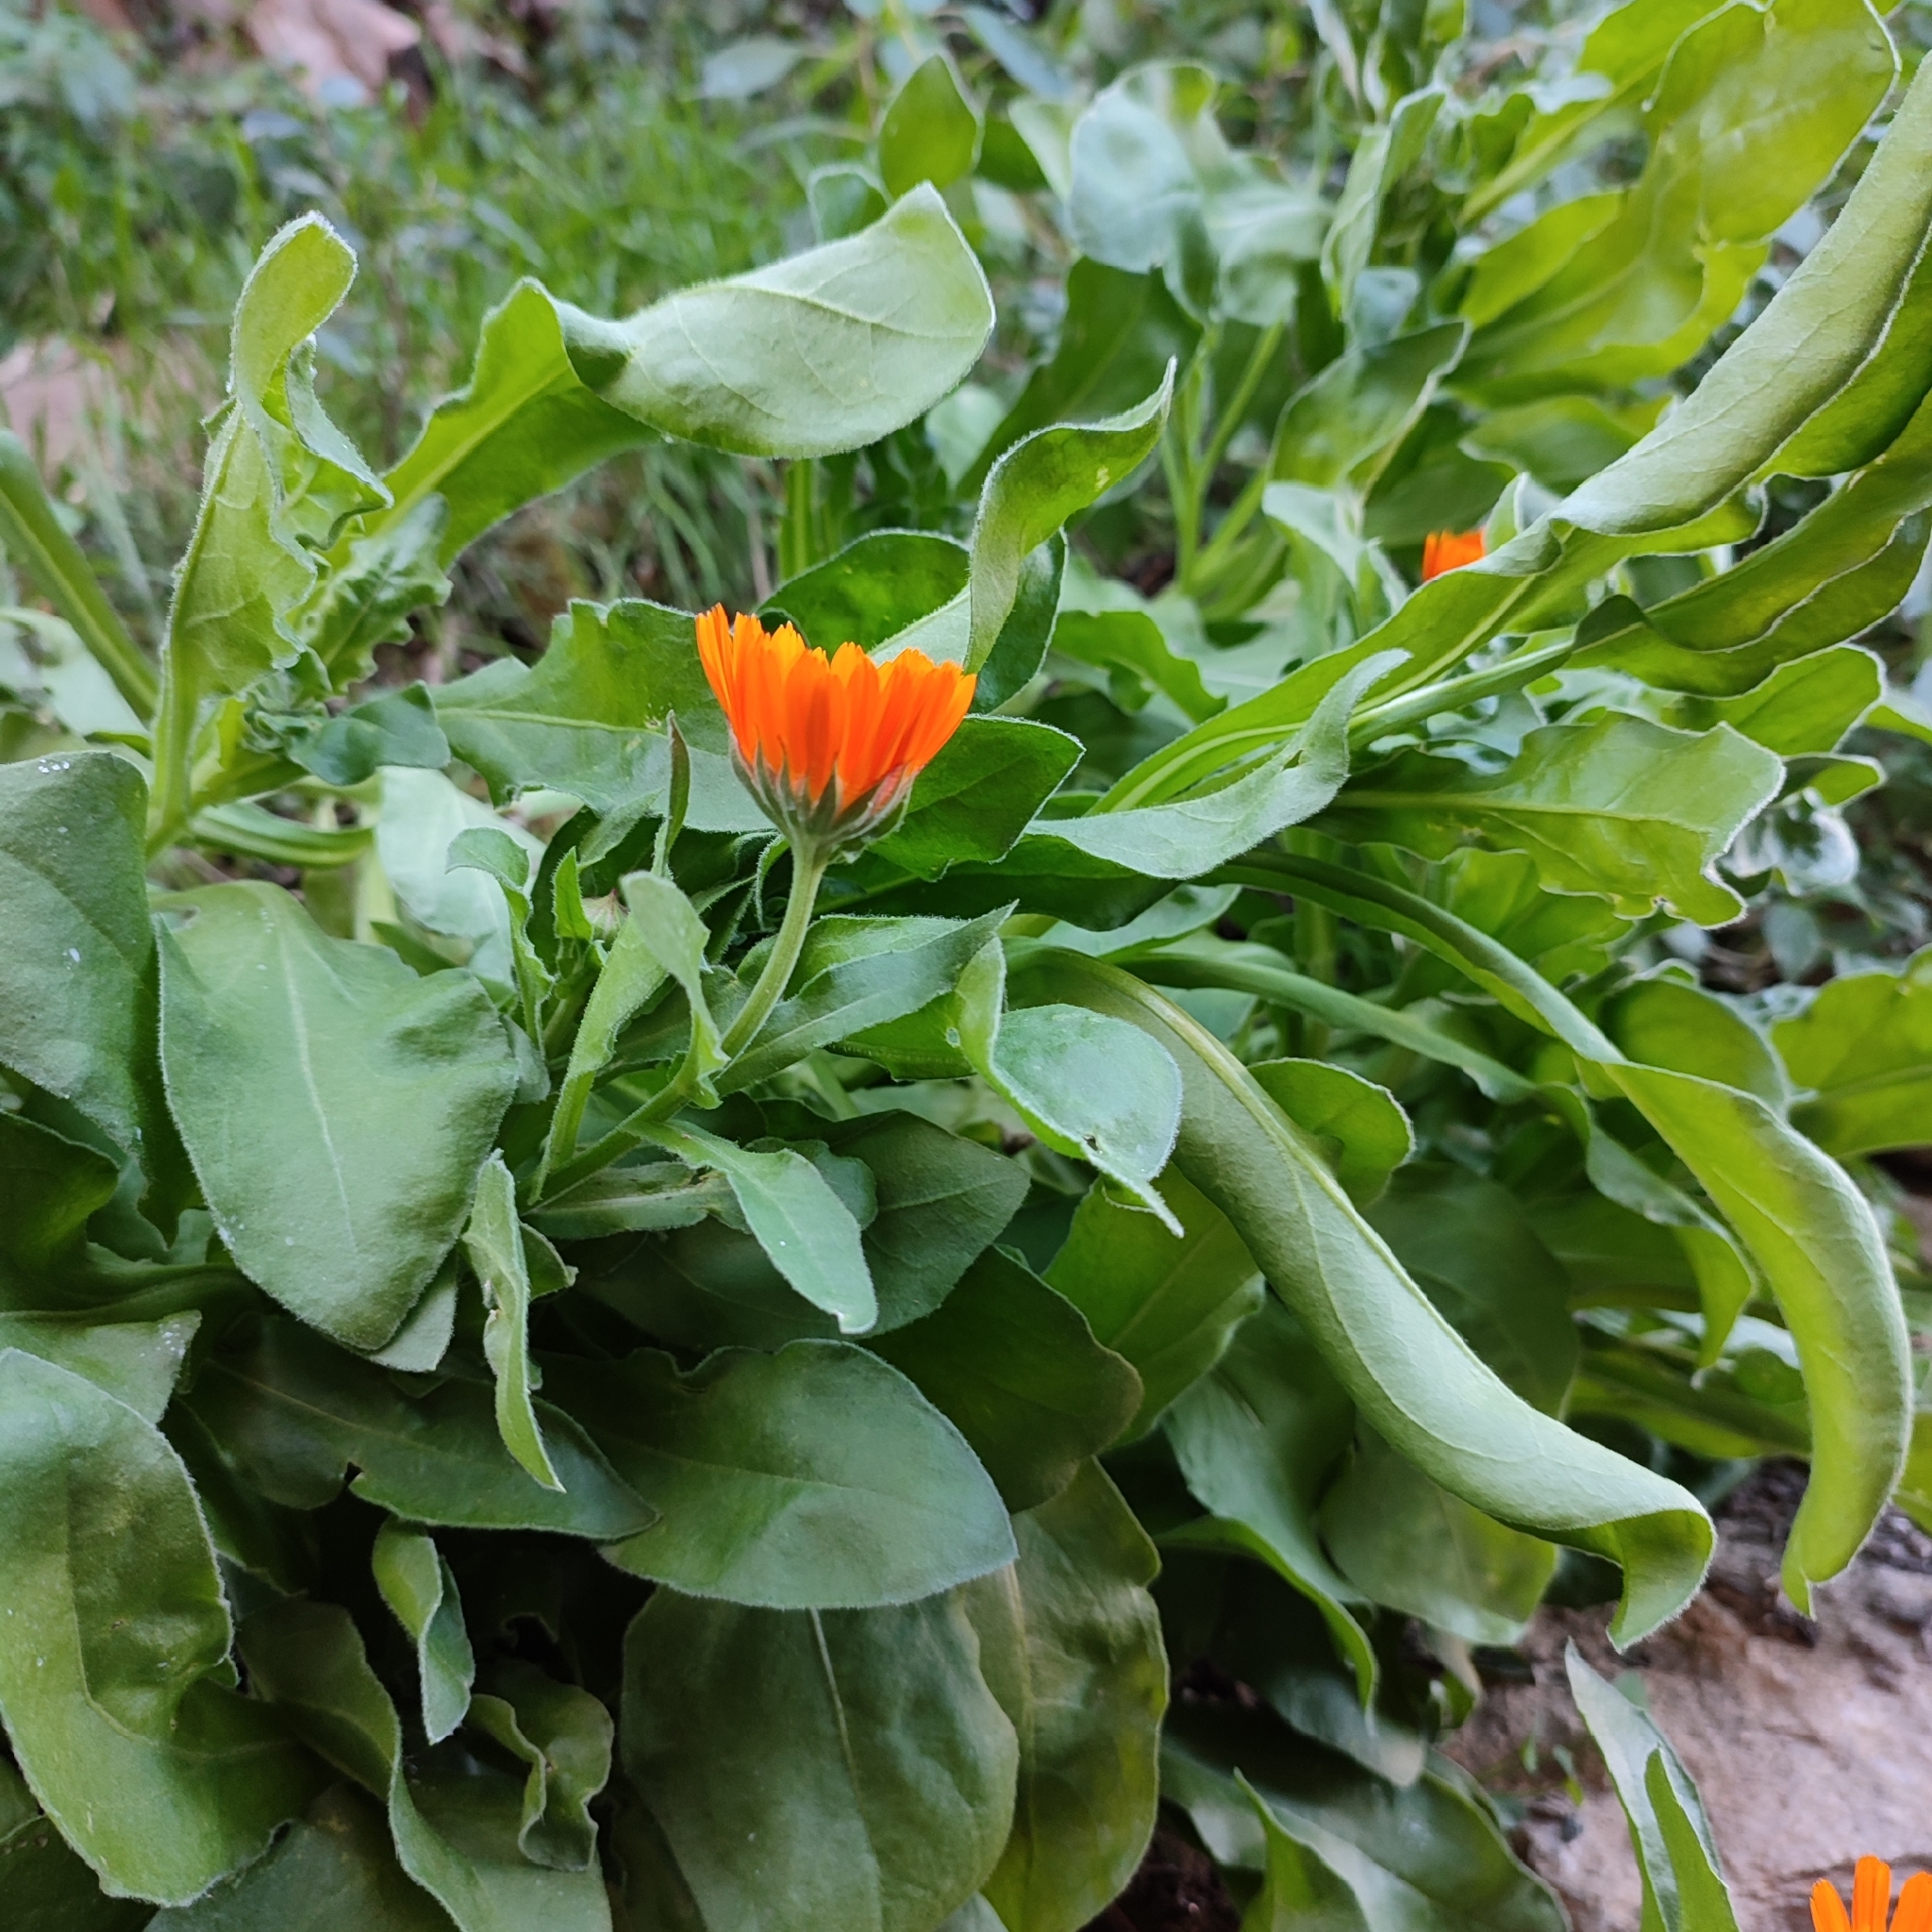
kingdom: Plantae
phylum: Tracheophyta
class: Magnoliopsida
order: Asterales
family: Asteraceae
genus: Calendula
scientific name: Calendula officinalis
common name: Pot marigold
